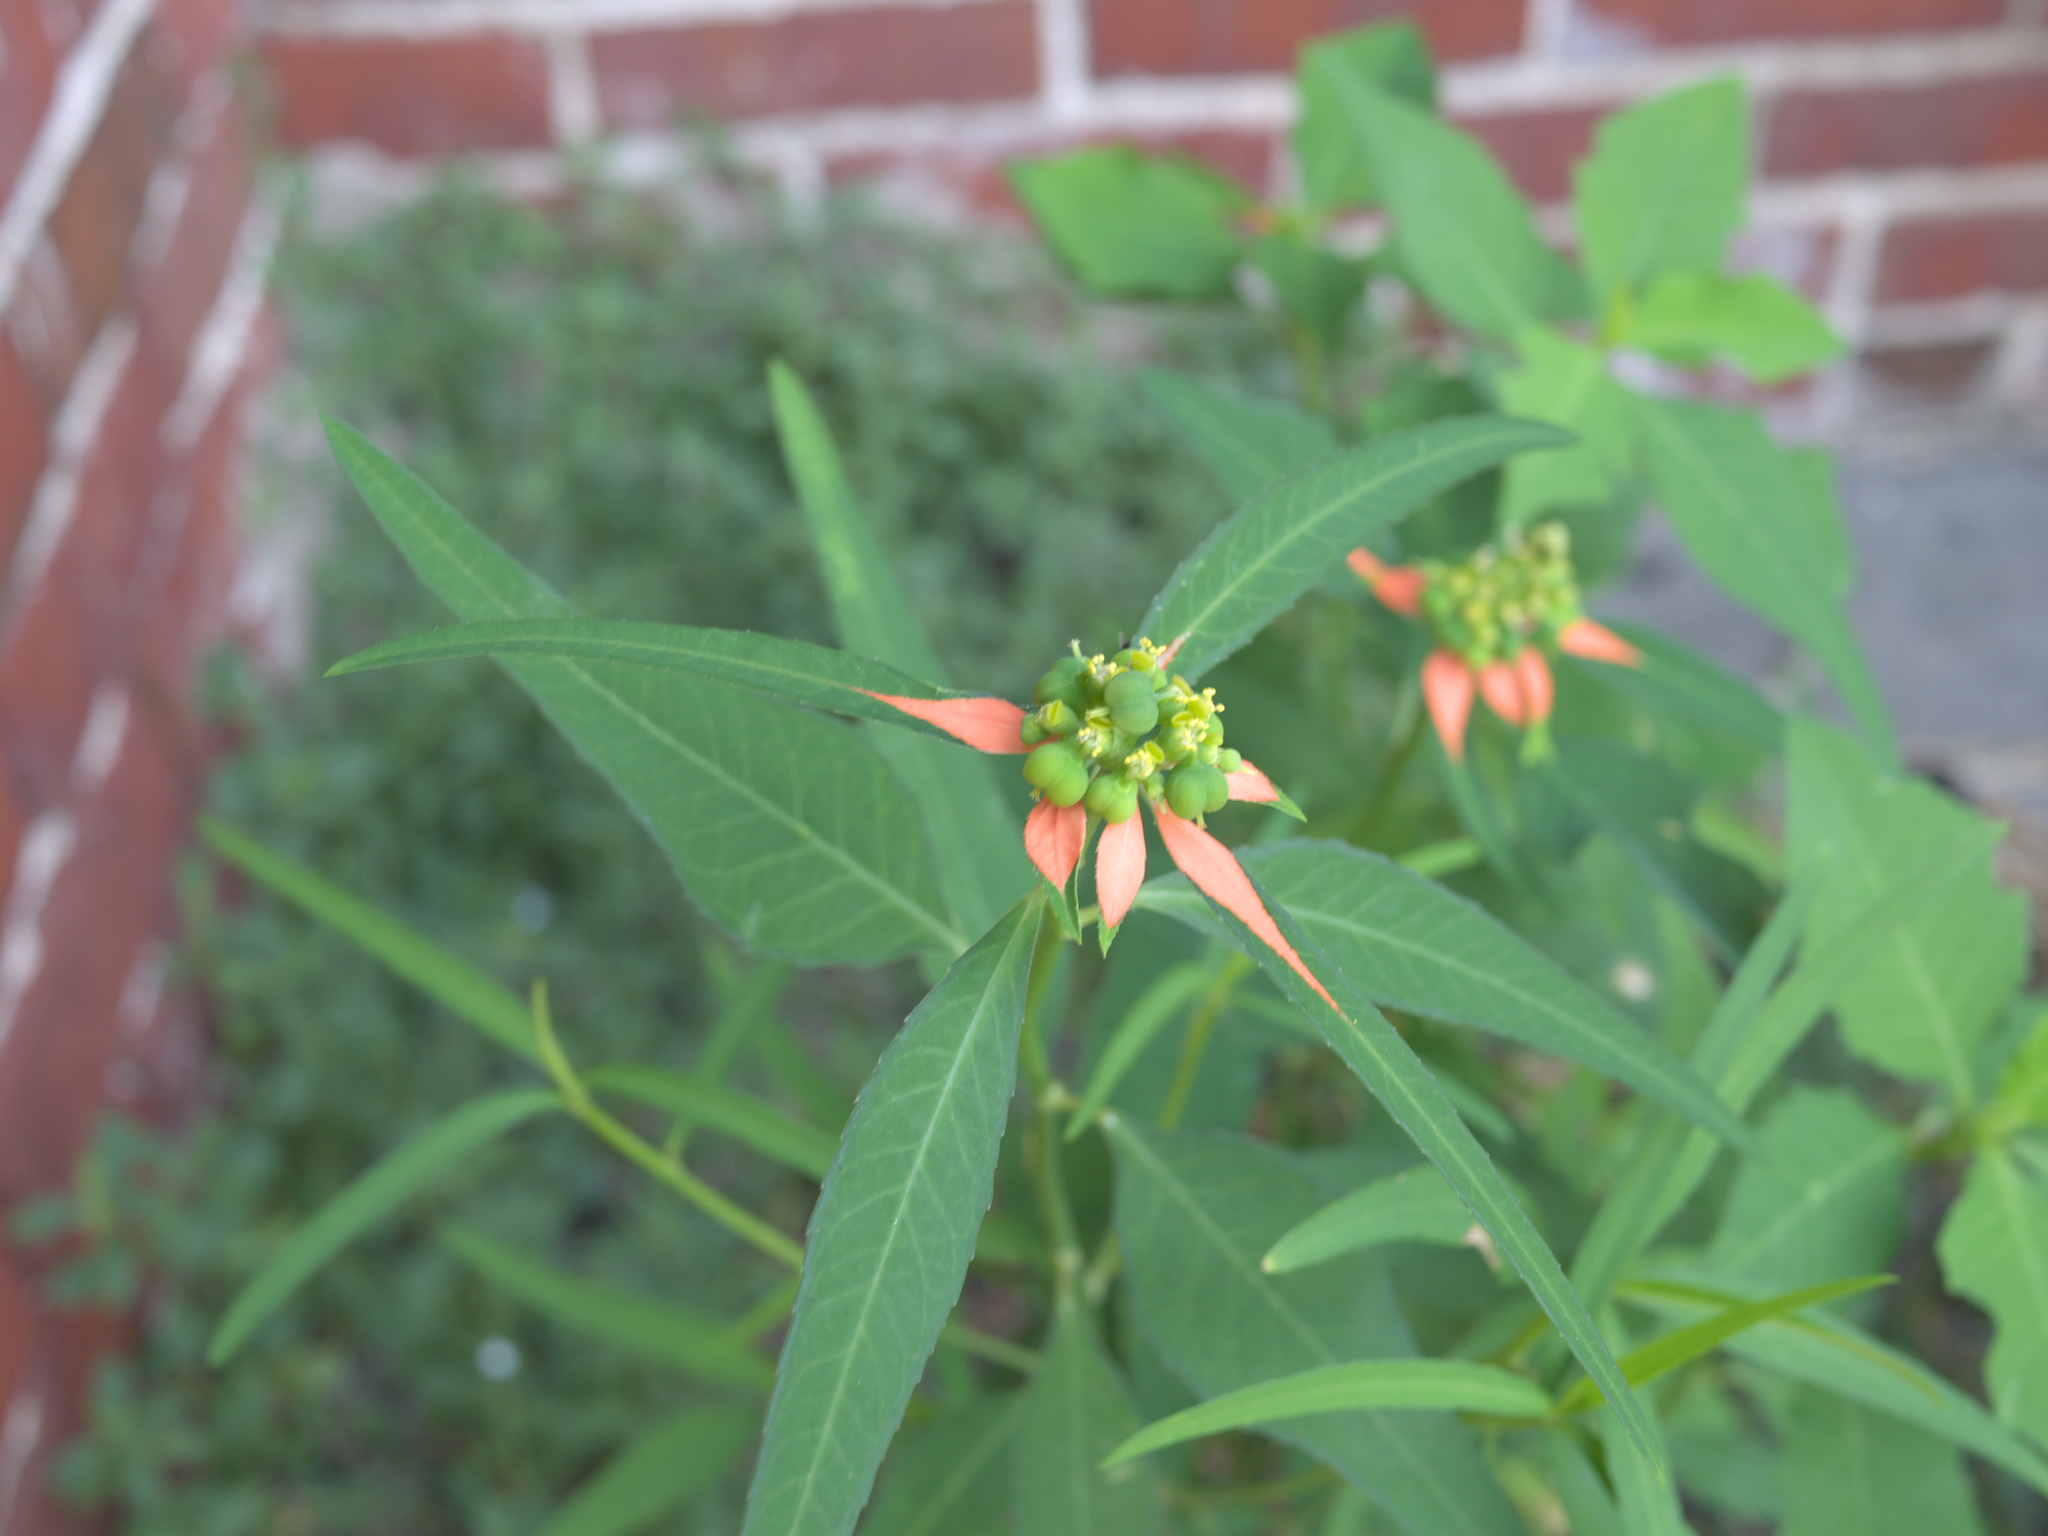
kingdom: Plantae
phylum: Tracheophyta
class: Magnoliopsida
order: Malpighiales
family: Euphorbiaceae
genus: Euphorbia
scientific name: Euphorbia heterophylla
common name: Mexican fireplant
